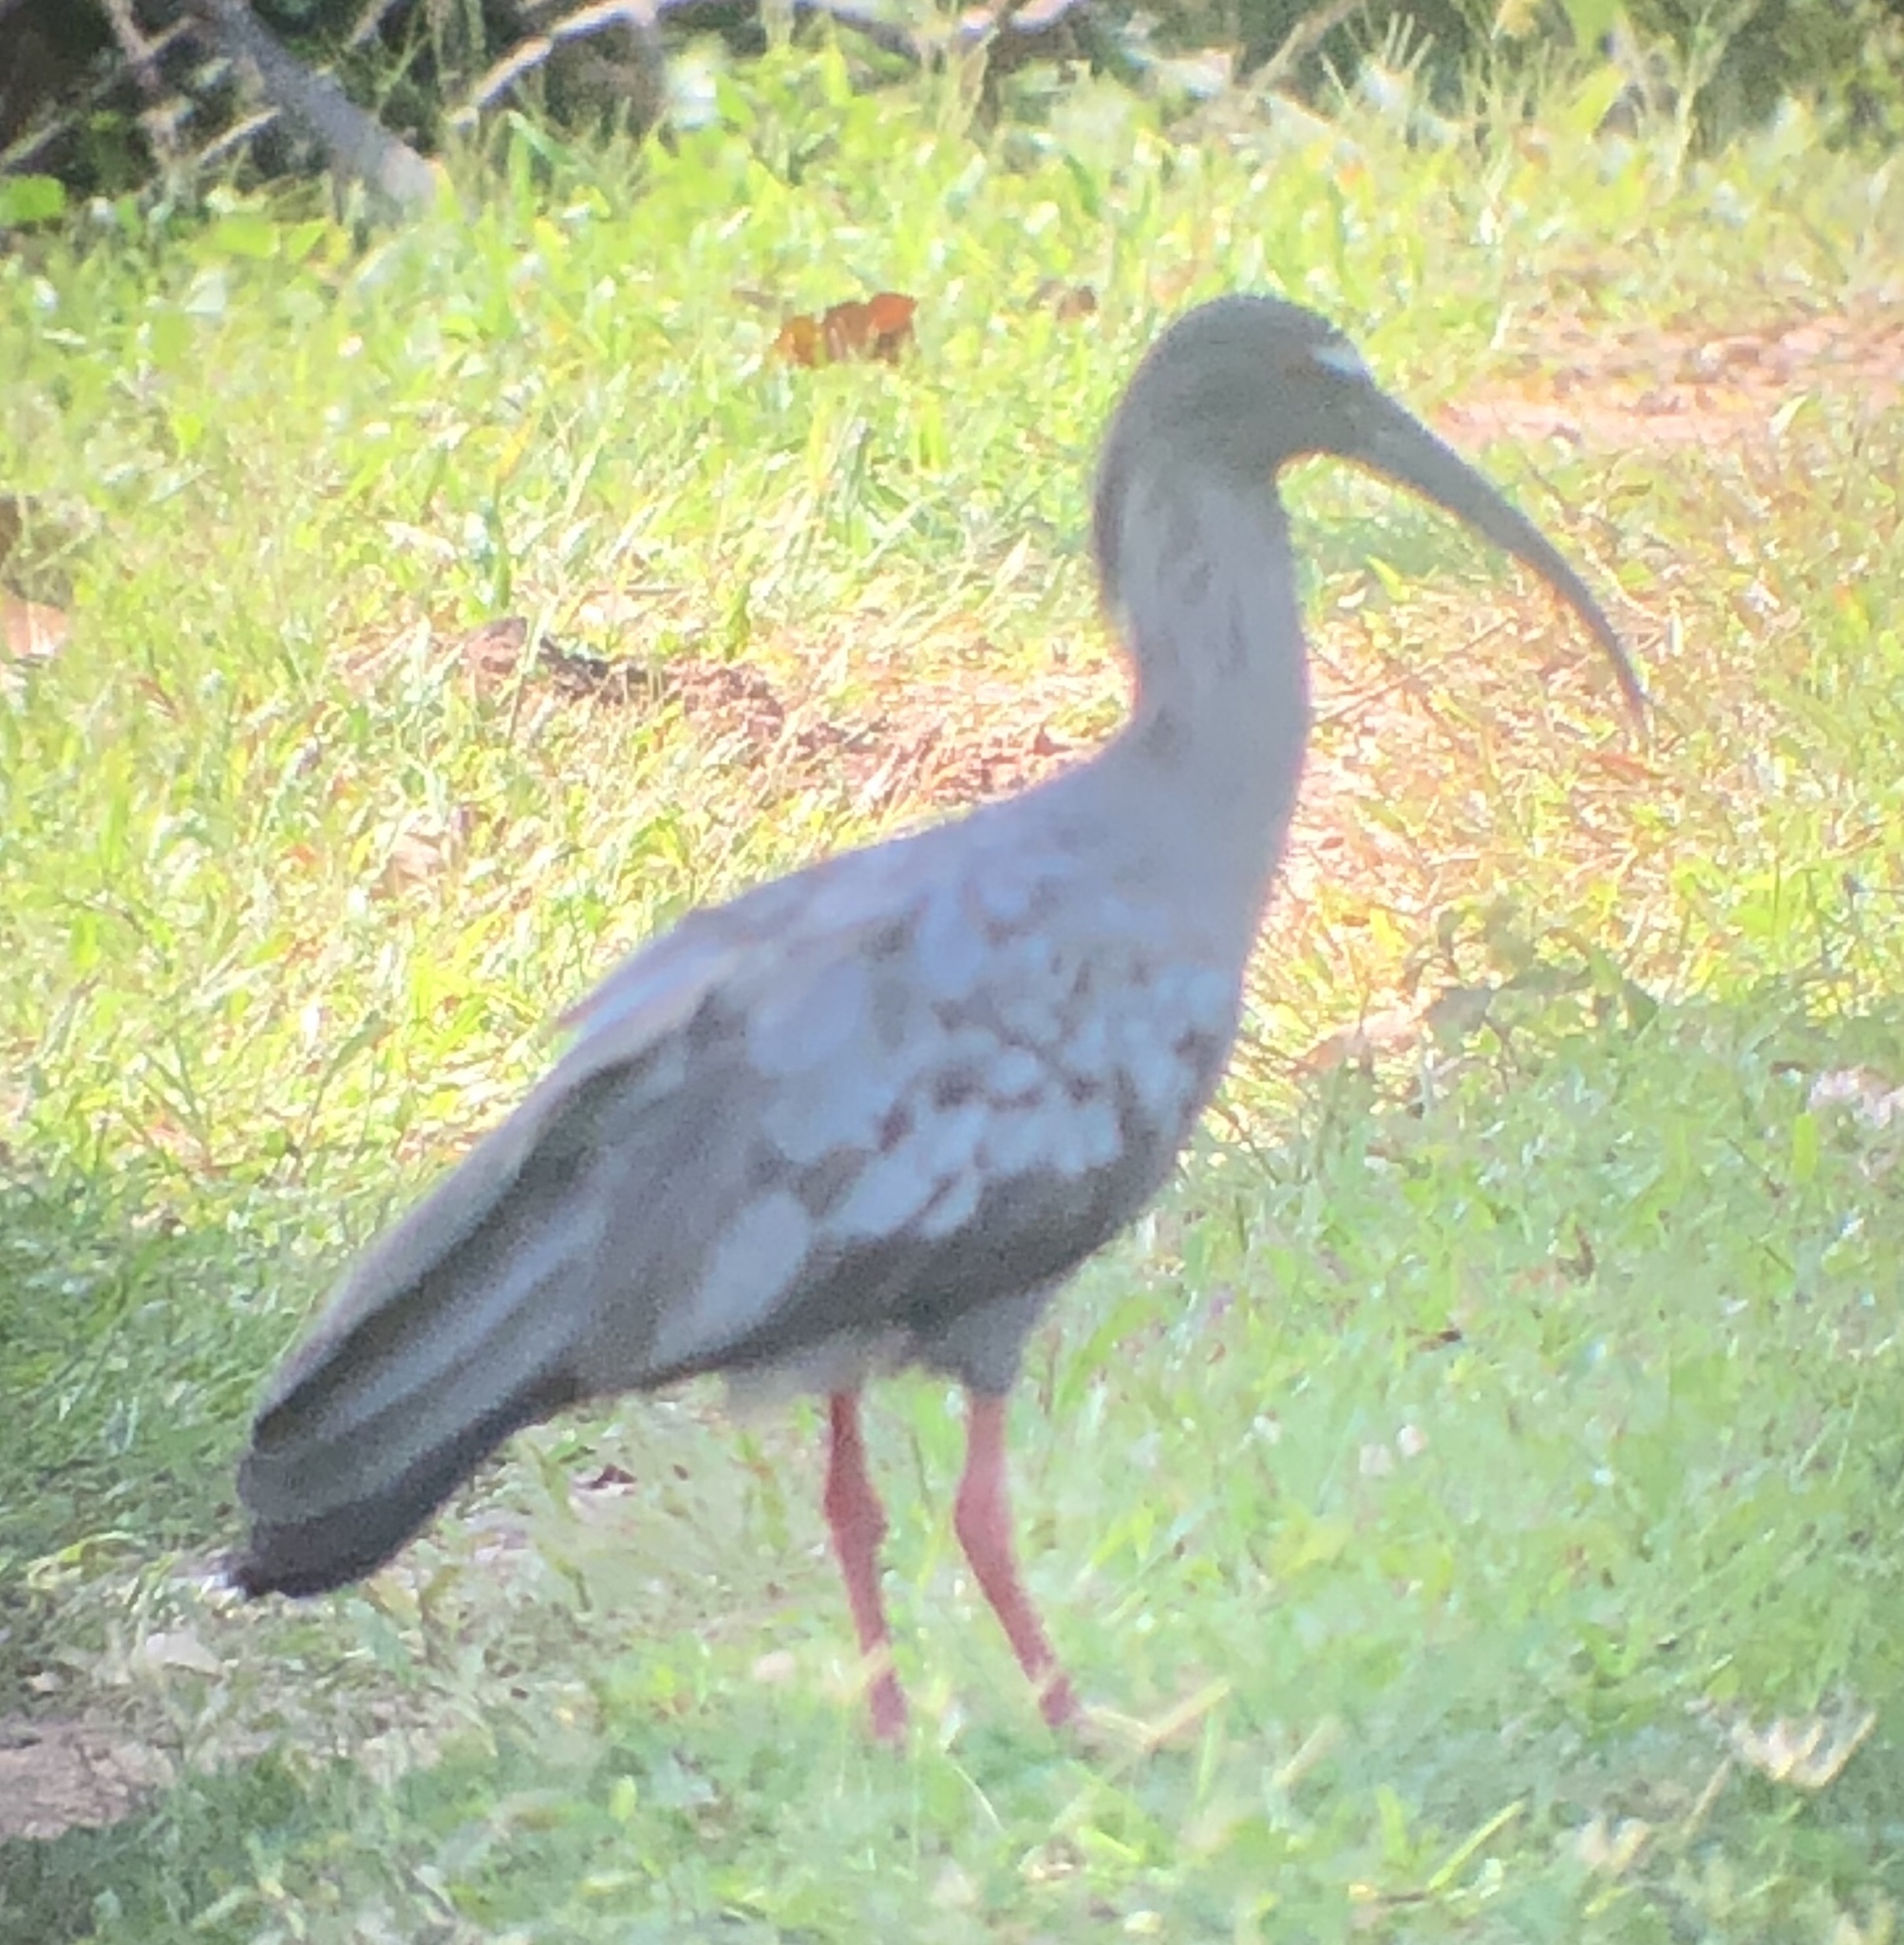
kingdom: Animalia
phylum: Chordata
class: Aves
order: Pelecaniformes
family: Threskiornithidae
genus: Theristicus
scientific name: Theristicus caerulescens
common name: Plumbeous ibis
